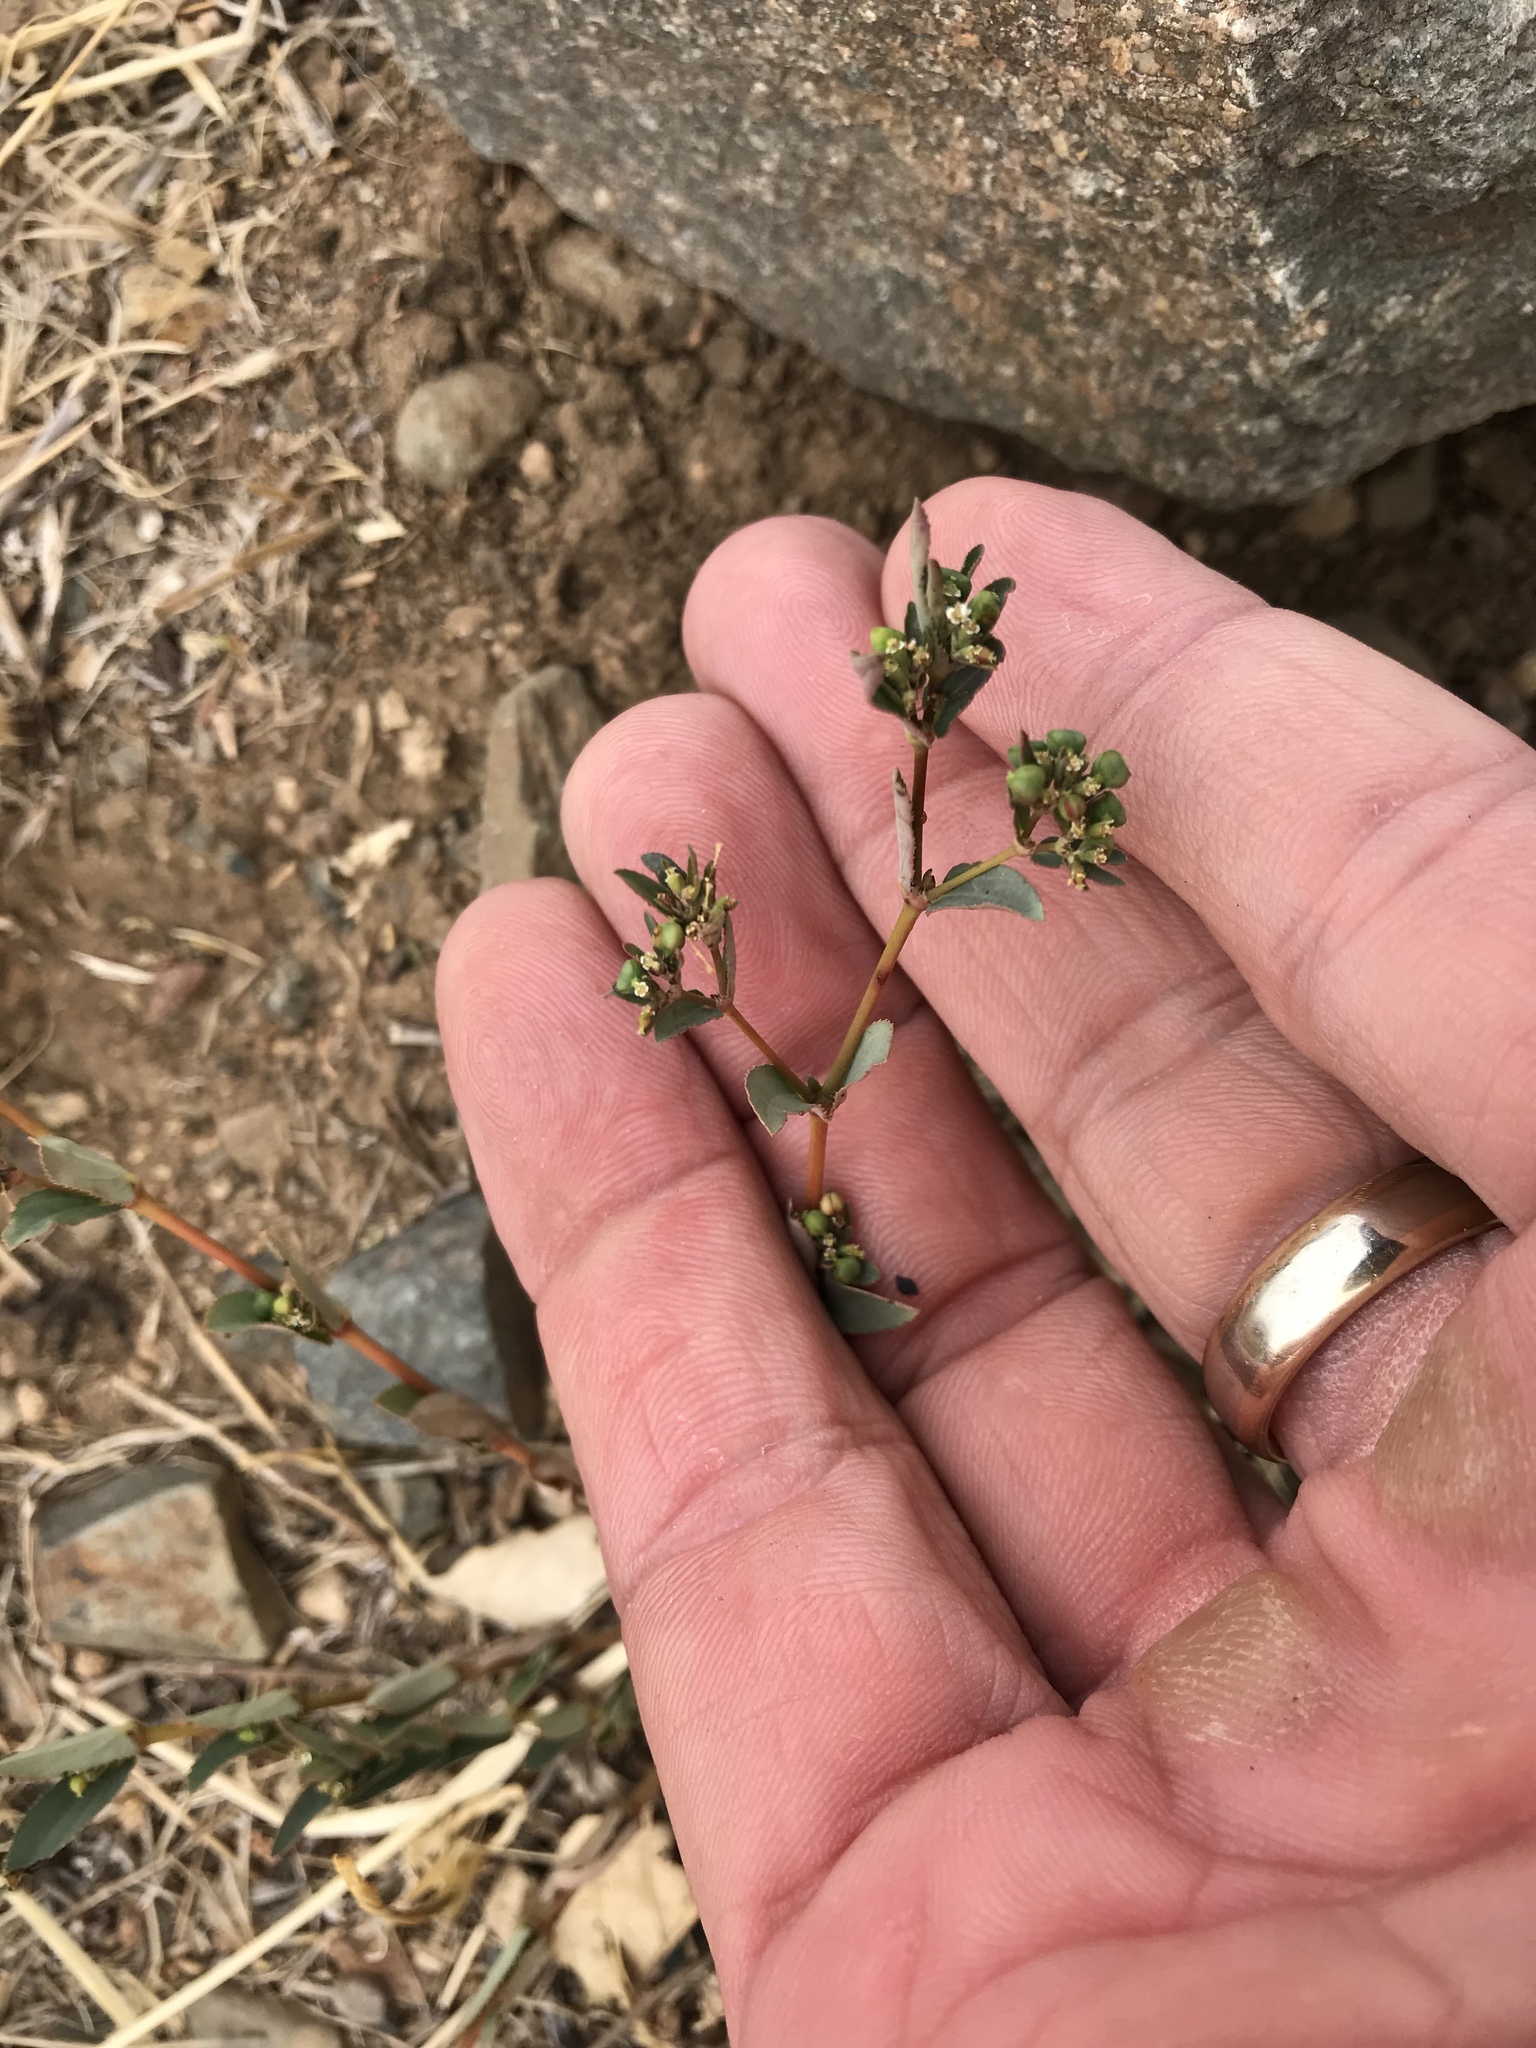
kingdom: Plantae
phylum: Tracheophyta
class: Magnoliopsida
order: Malpighiales
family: Euphorbiaceae
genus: Euphorbia
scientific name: Euphorbia hyssopifolia
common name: Hyssopleaf sandmat
